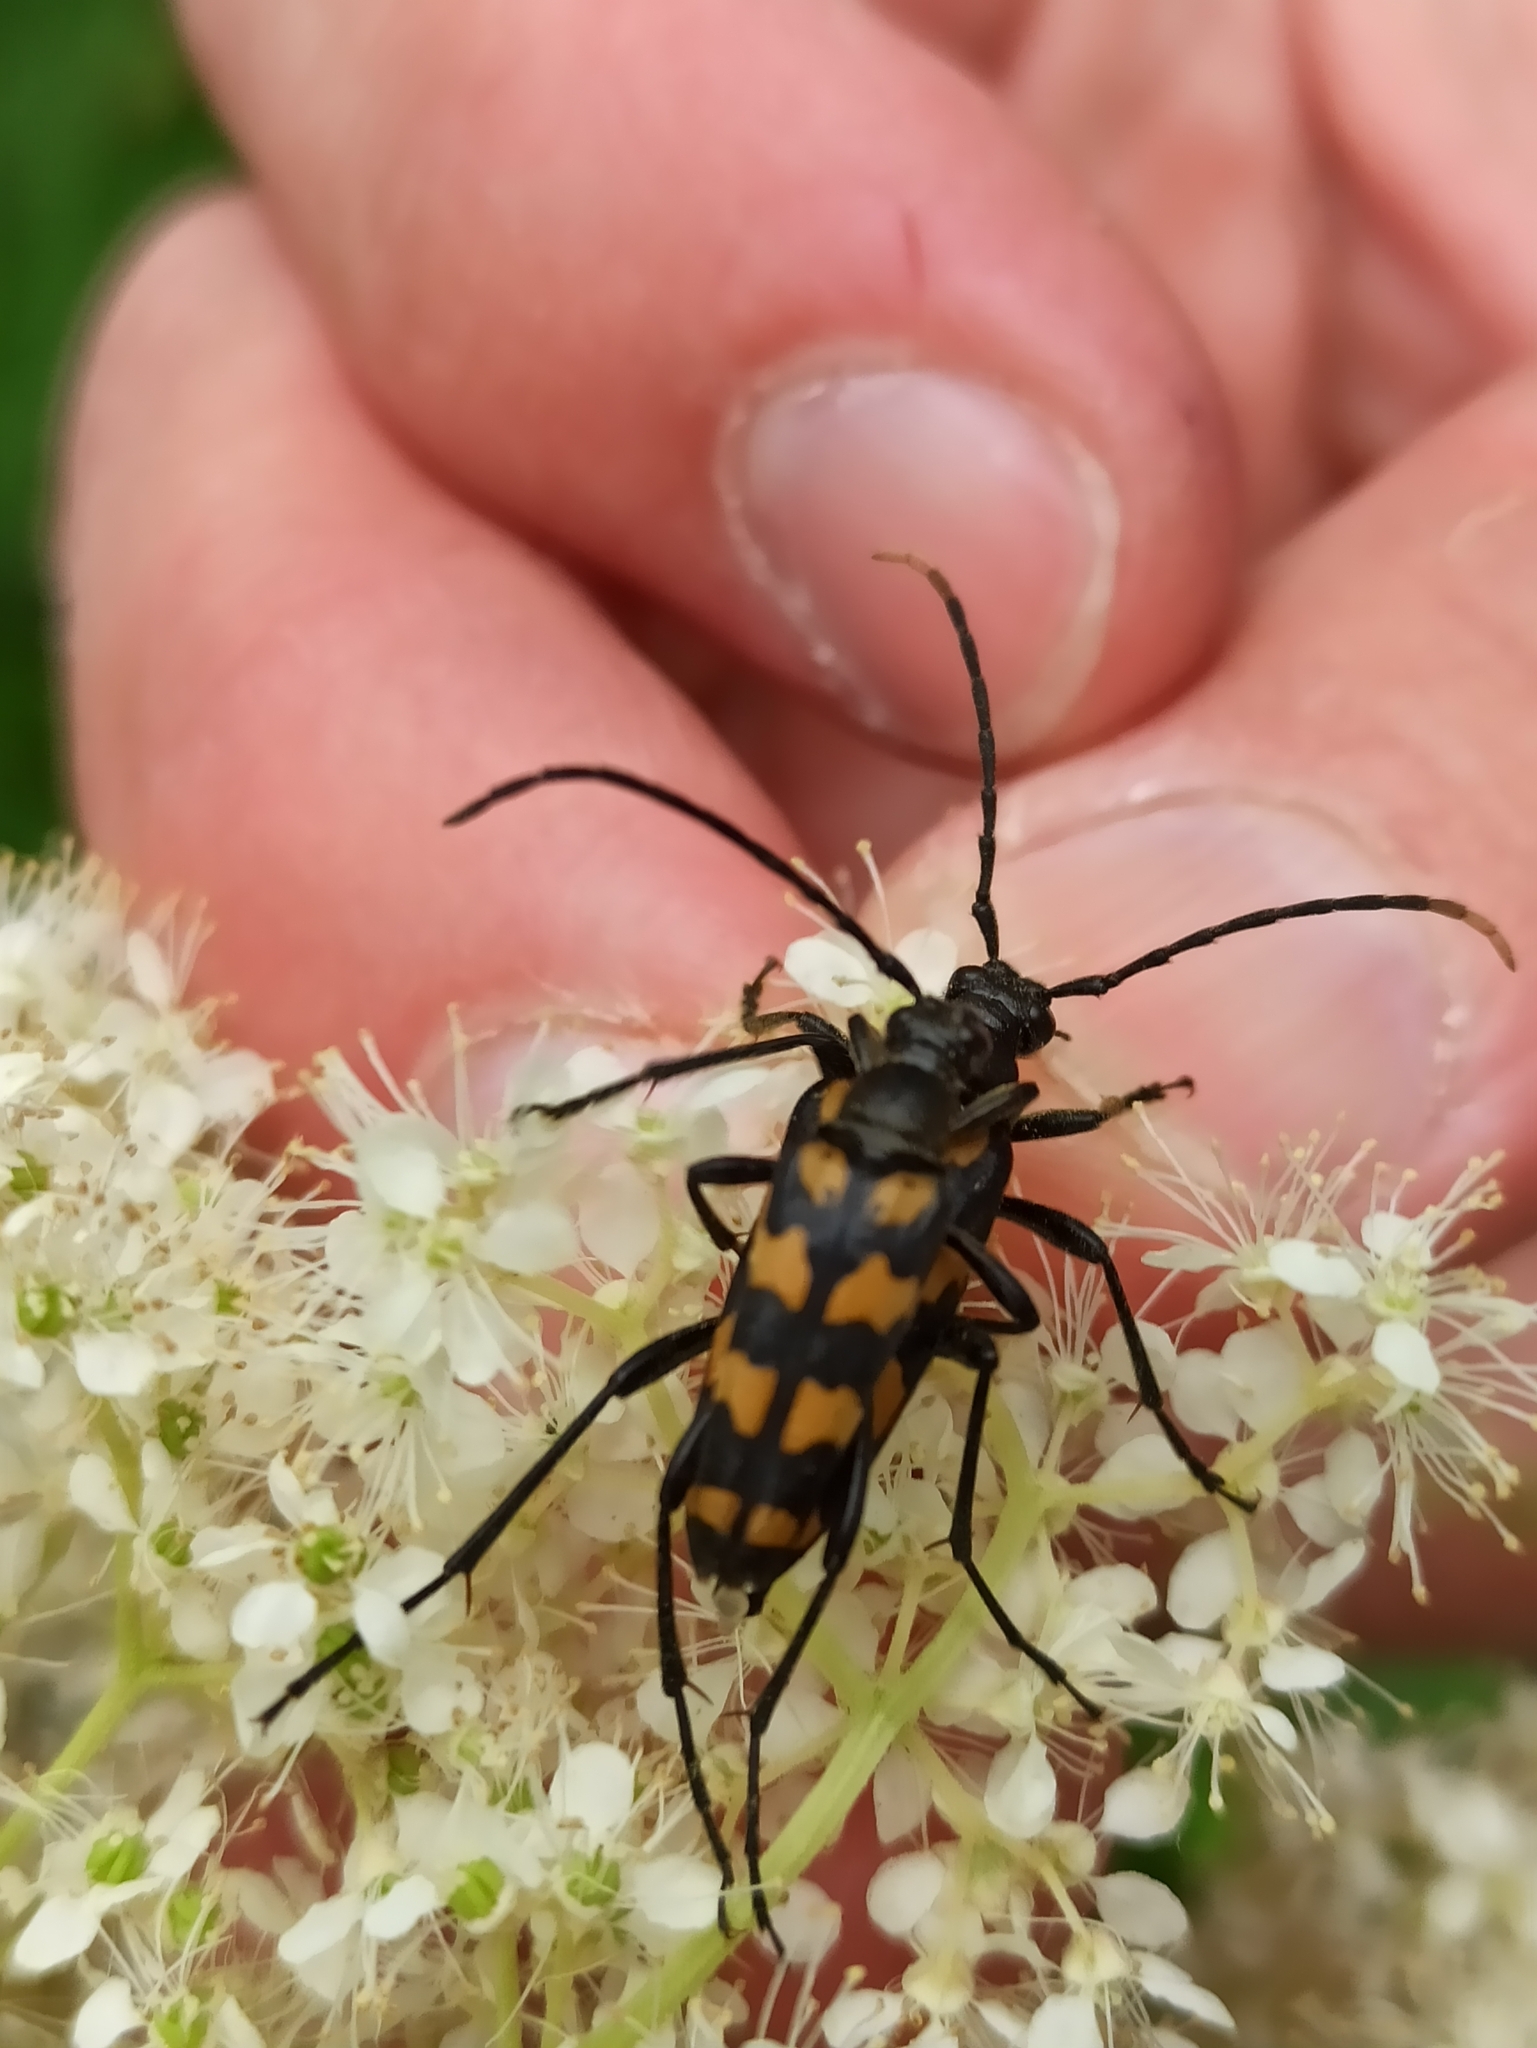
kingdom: Animalia
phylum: Arthropoda
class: Insecta
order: Coleoptera
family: Cerambycidae
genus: Leptura
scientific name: Leptura quadrifasciata
